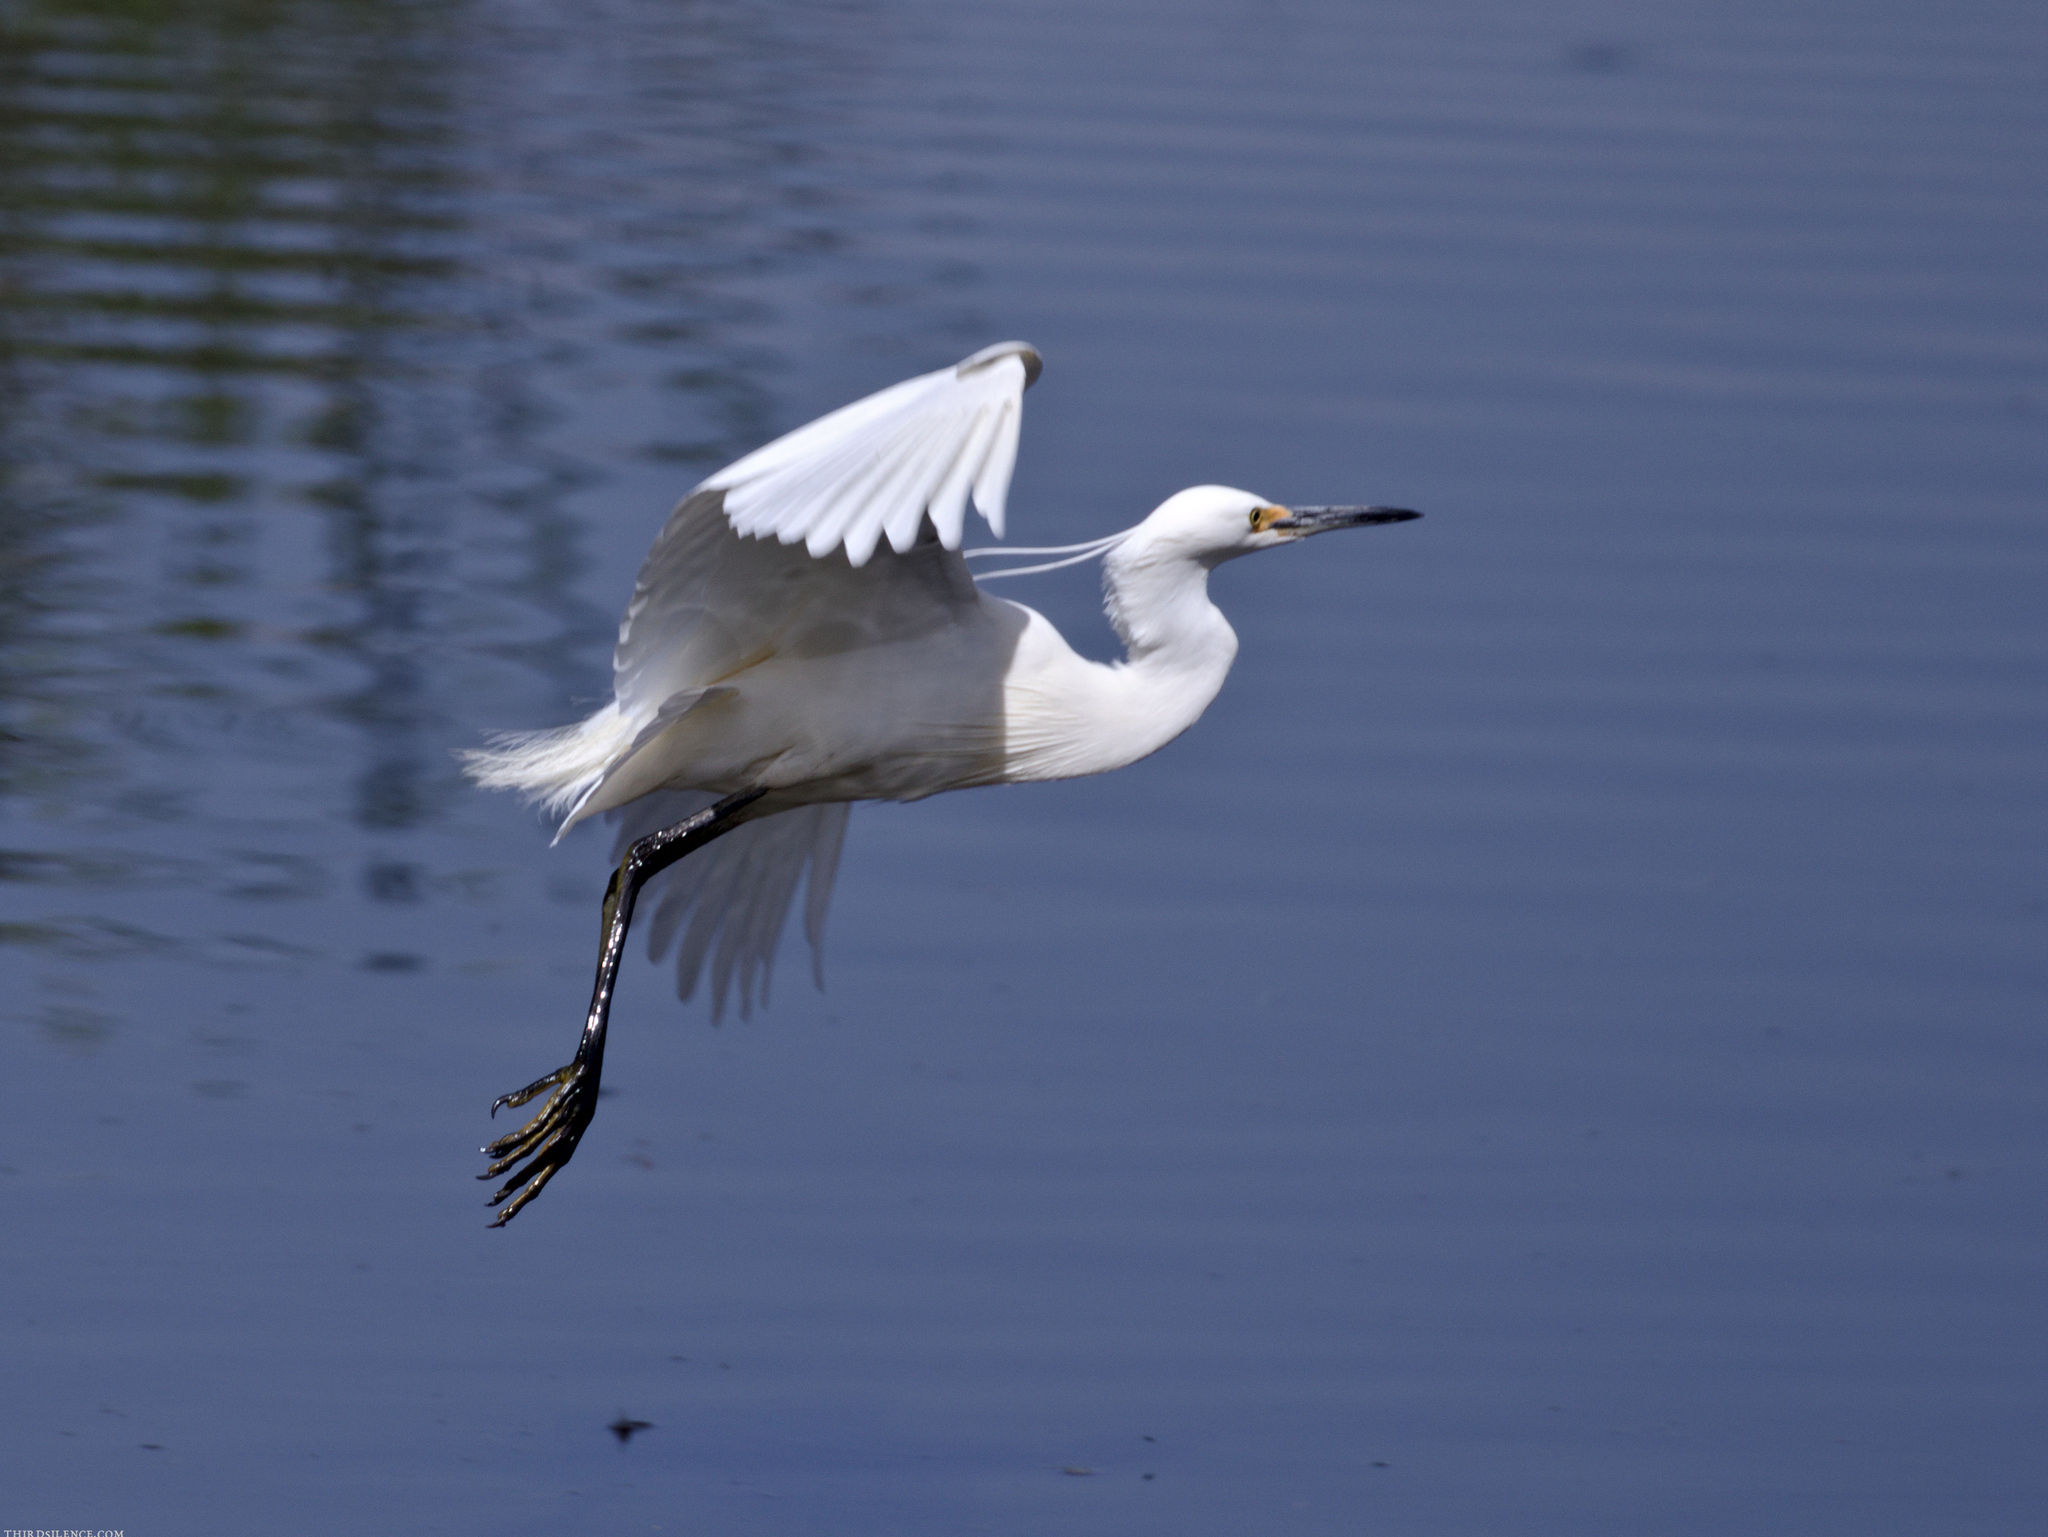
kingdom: Animalia
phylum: Chordata
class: Aves
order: Pelecaniformes
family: Ardeidae
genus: Egretta
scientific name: Egretta garzetta
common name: Little egret
